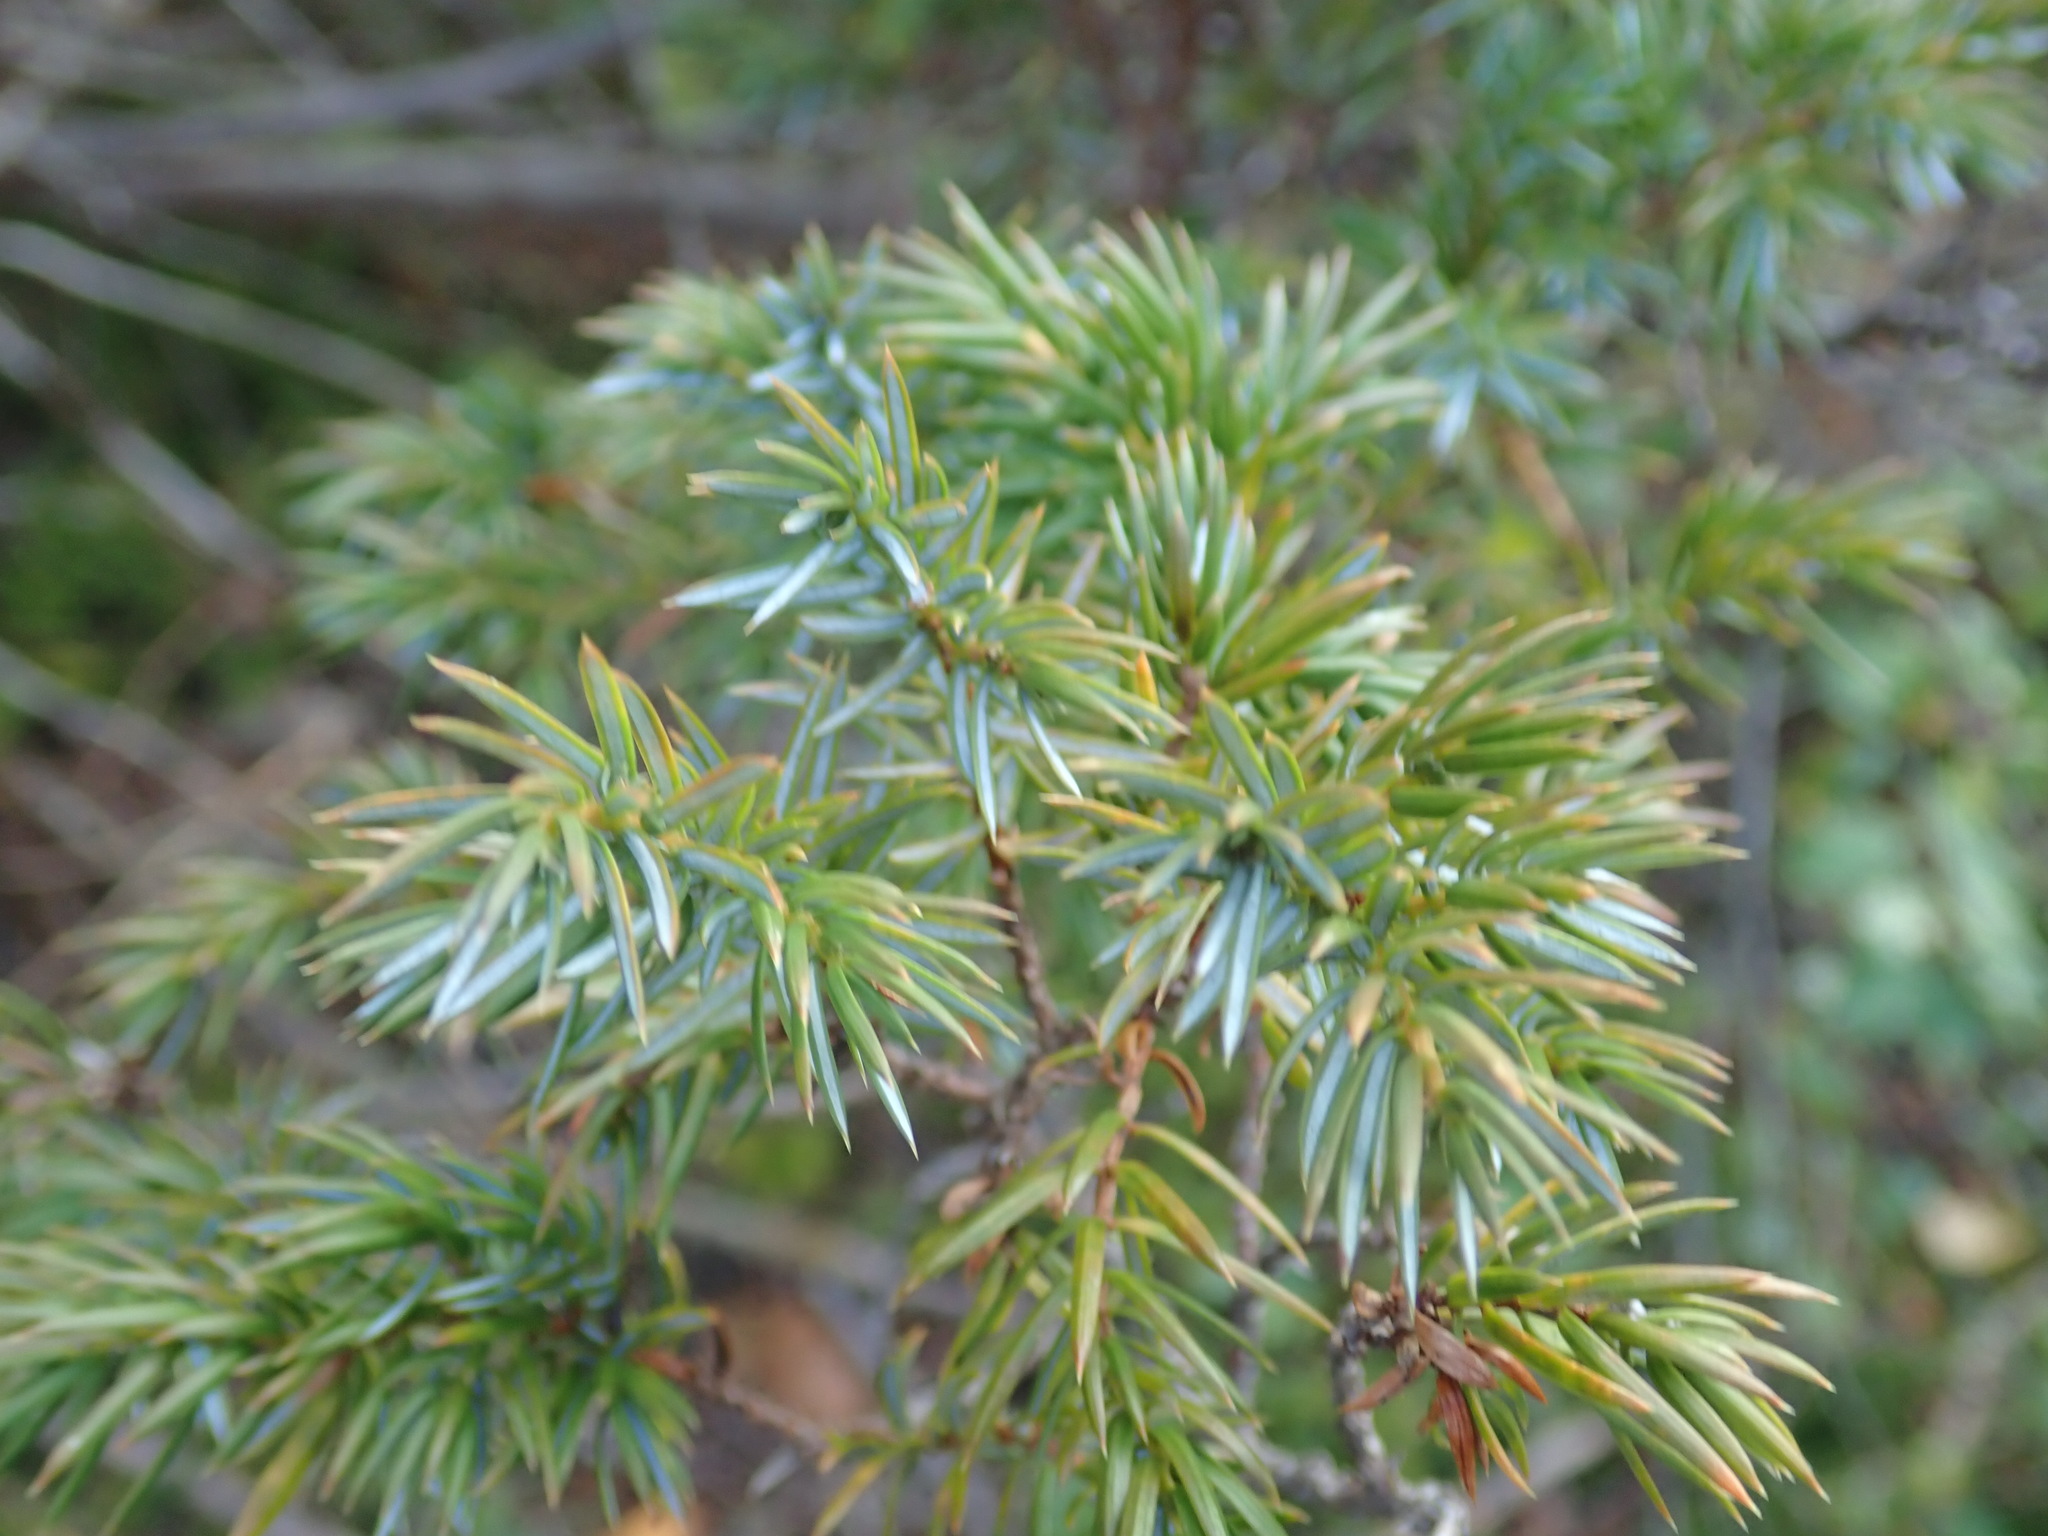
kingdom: Plantae
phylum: Tracheophyta
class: Pinopsida
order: Pinales
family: Cupressaceae
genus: Juniperus
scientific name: Juniperus communis
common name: Common juniper
